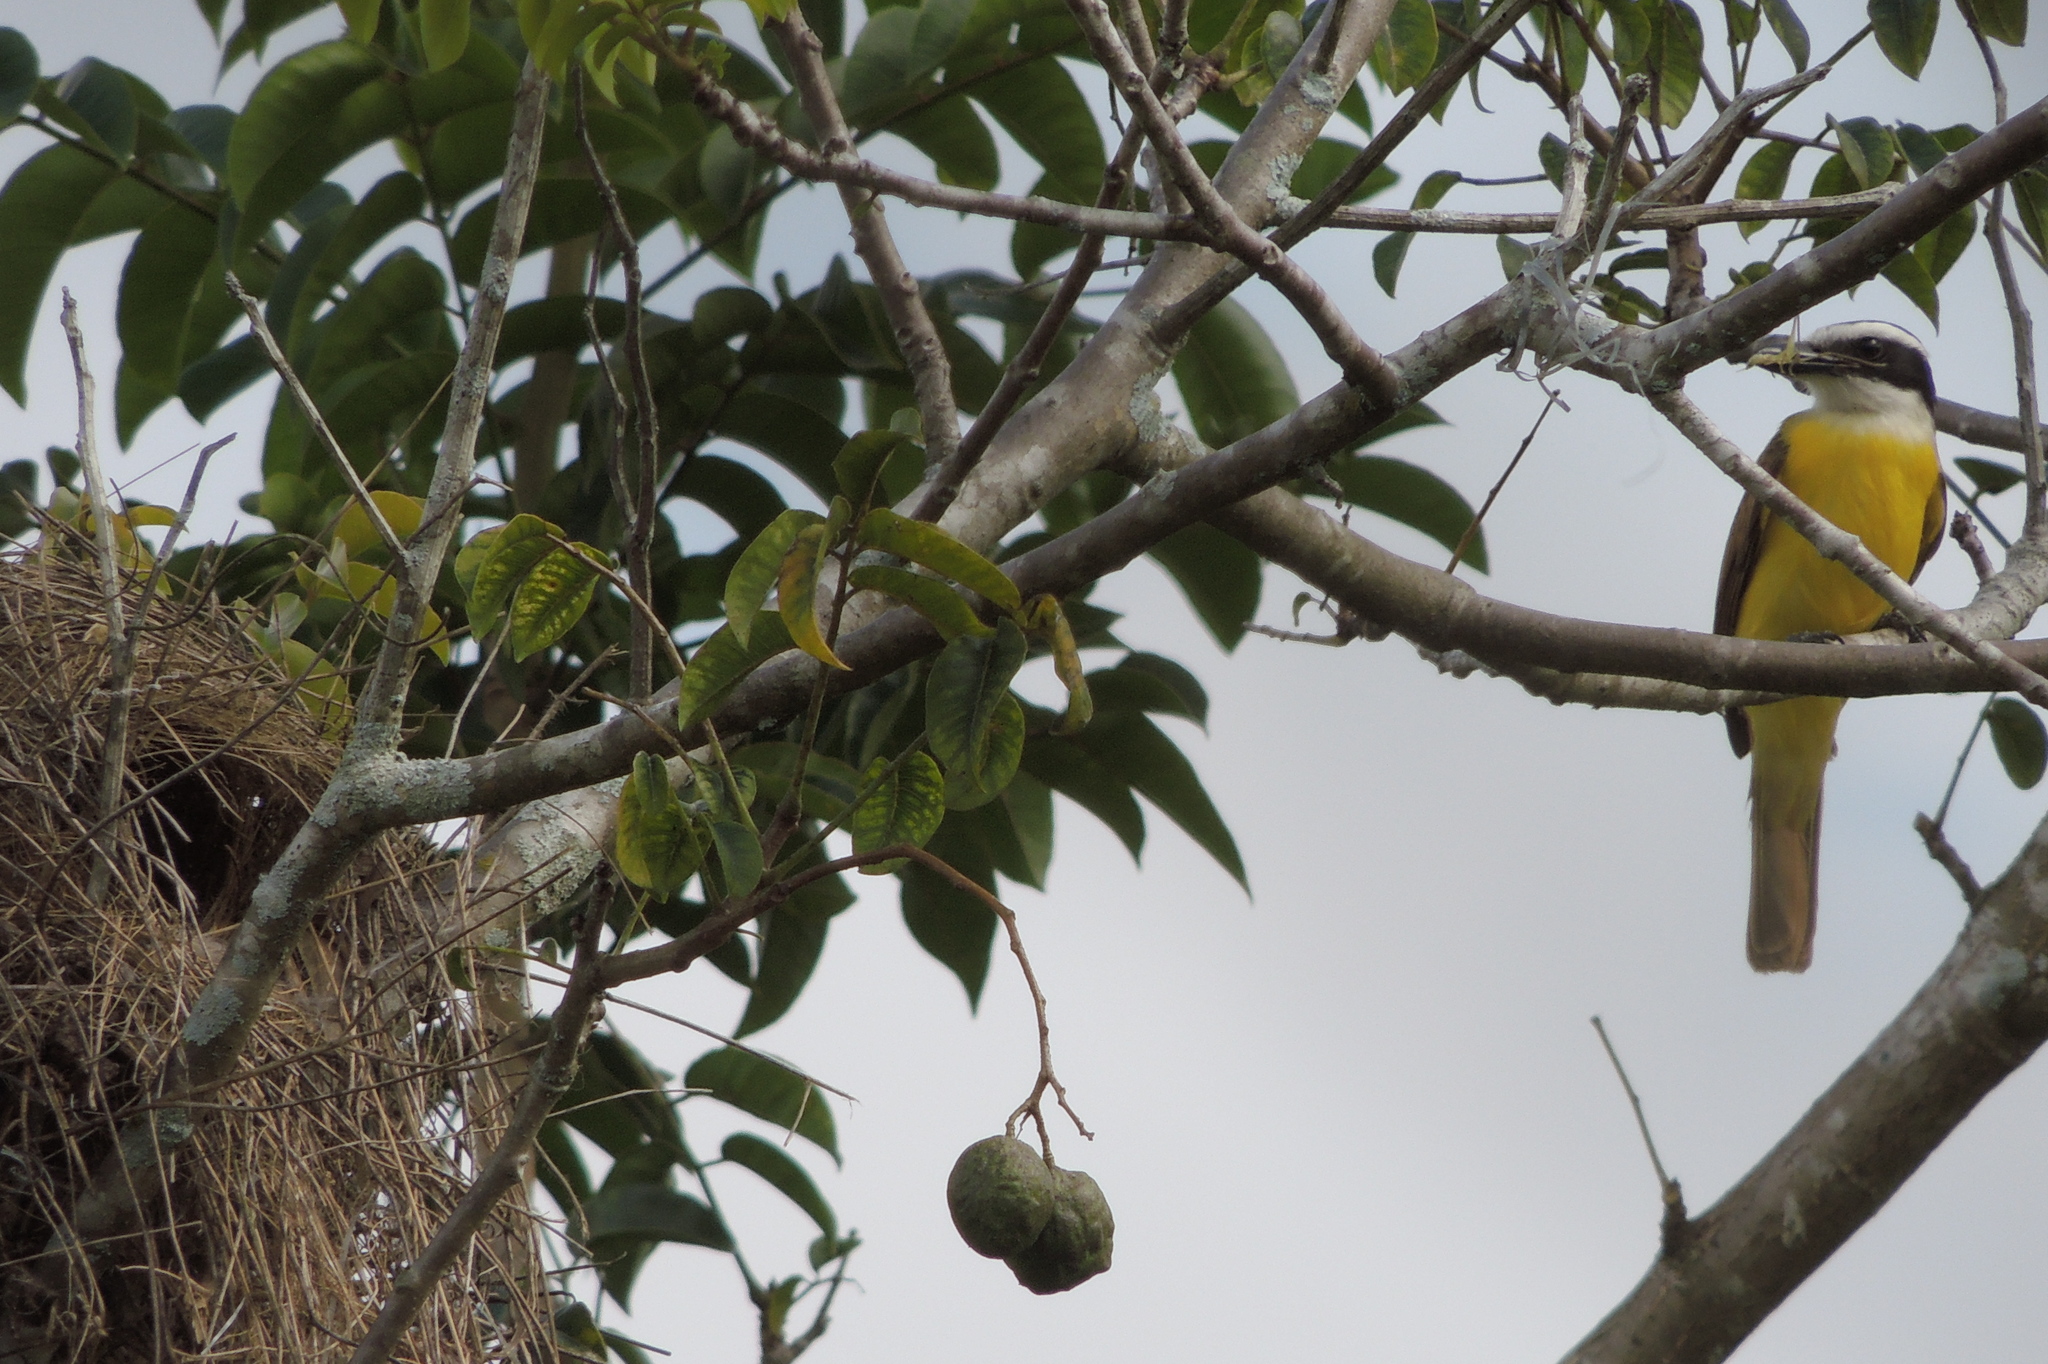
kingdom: Animalia
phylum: Chordata
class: Aves
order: Passeriformes
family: Tyrannidae
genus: Pitangus
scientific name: Pitangus sulphuratus
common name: Great kiskadee
